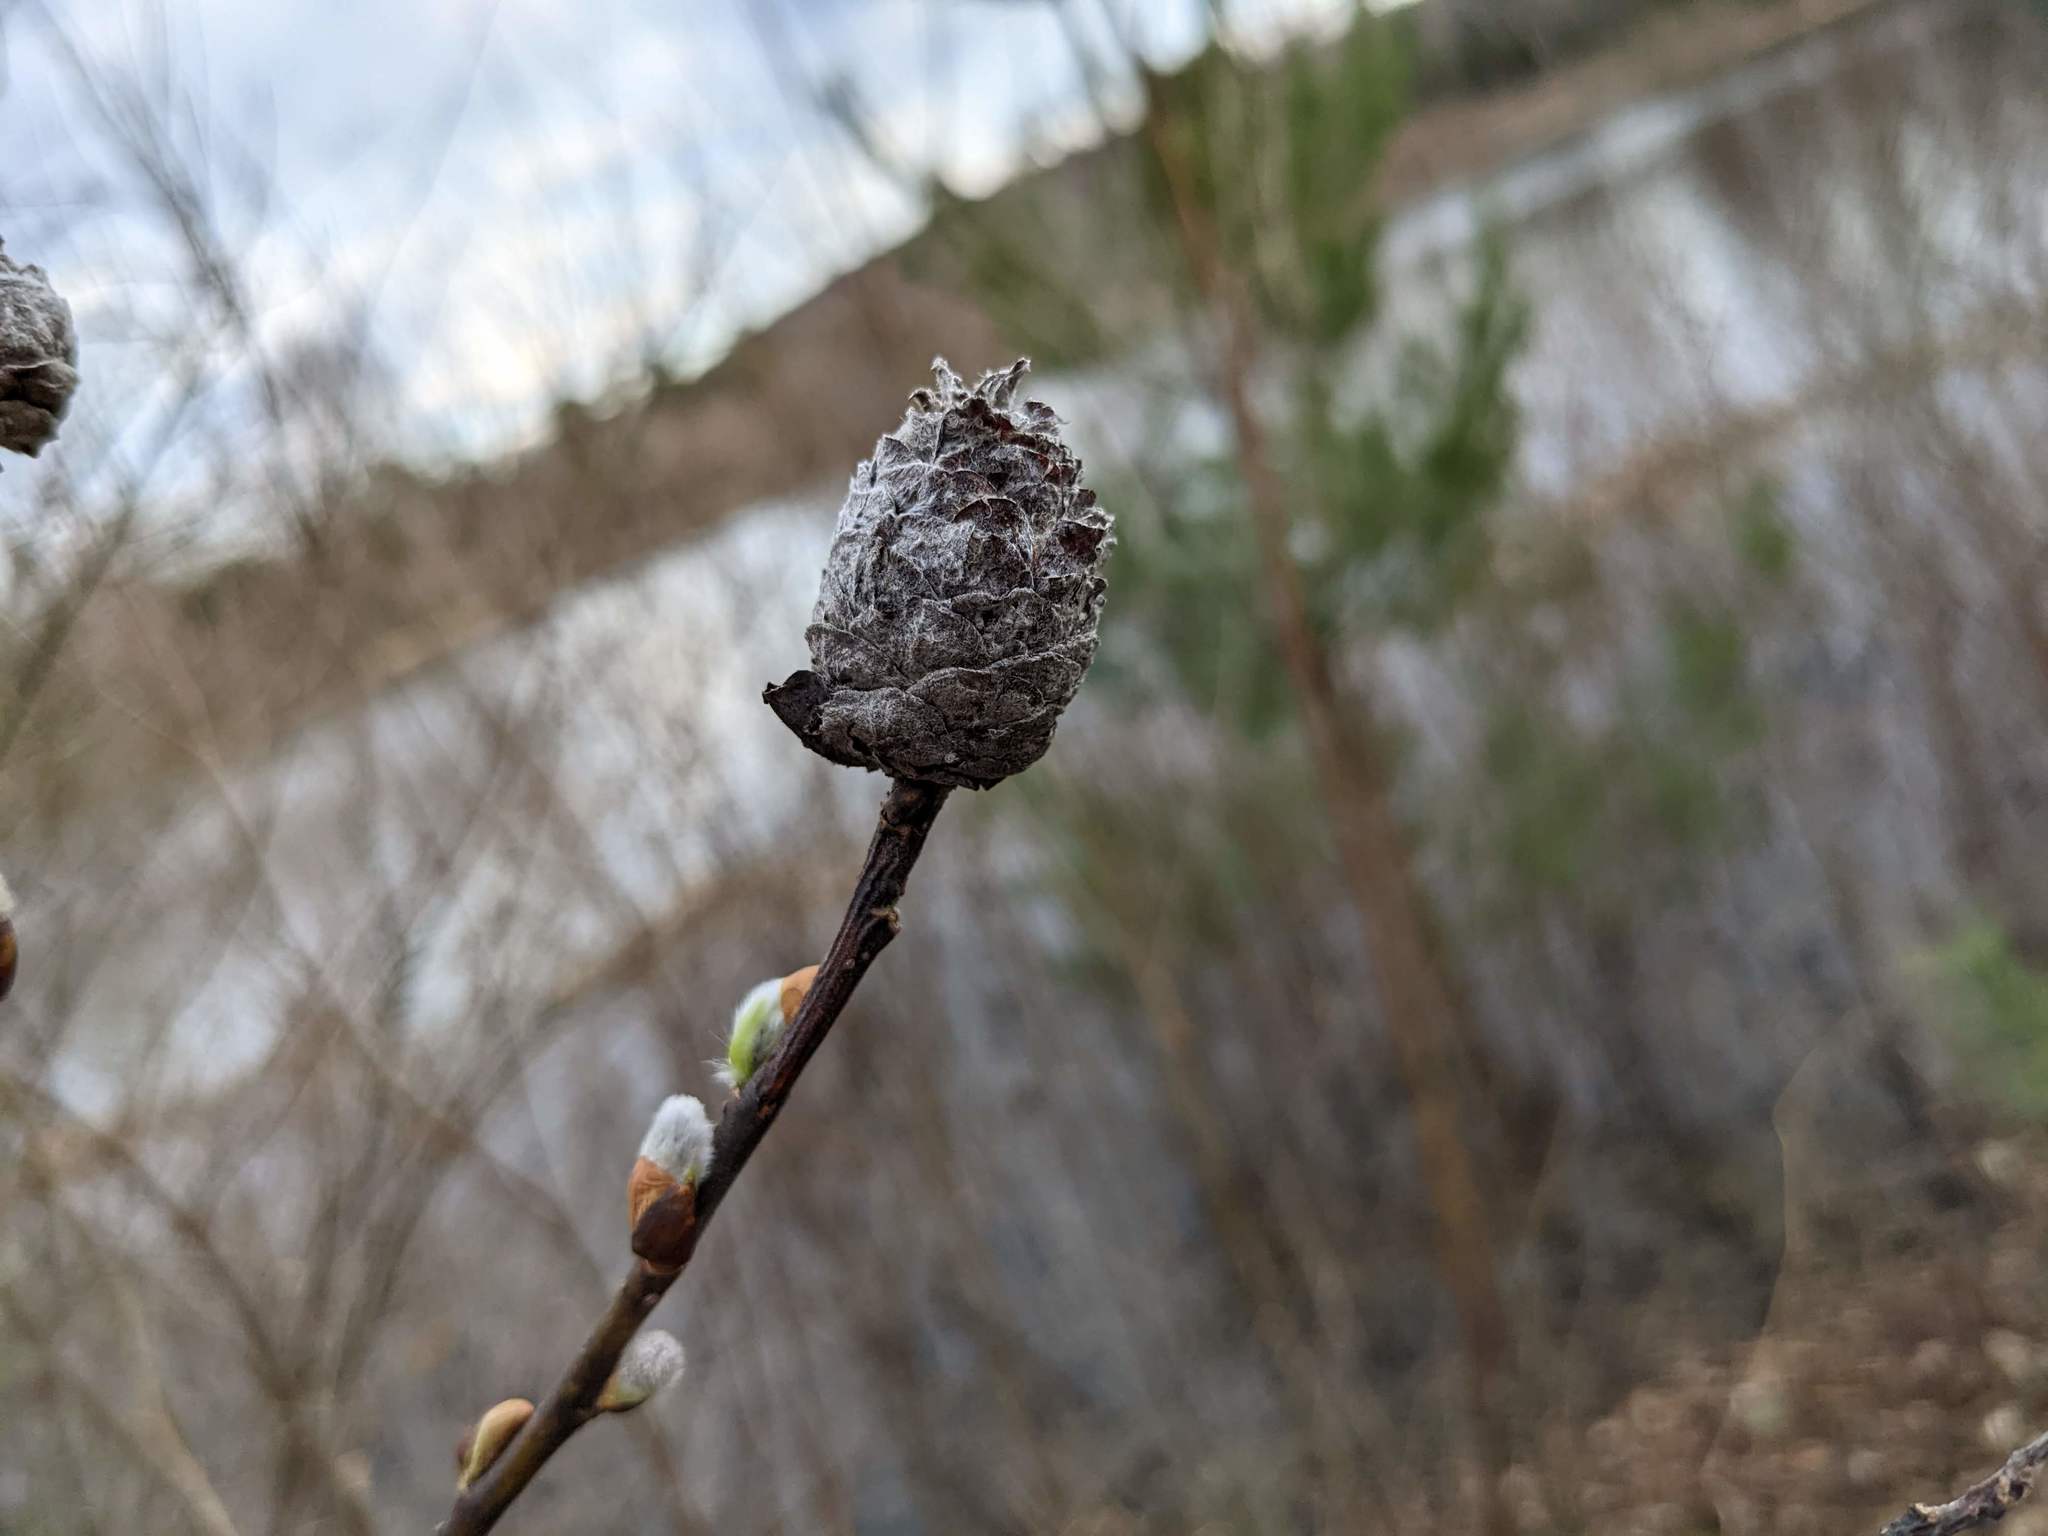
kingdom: Animalia
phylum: Arthropoda
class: Insecta
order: Diptera
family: Cecidomyiidae
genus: Rabdophaga
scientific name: Rabdophaga strobiloides
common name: Willow pinecone gall midge
